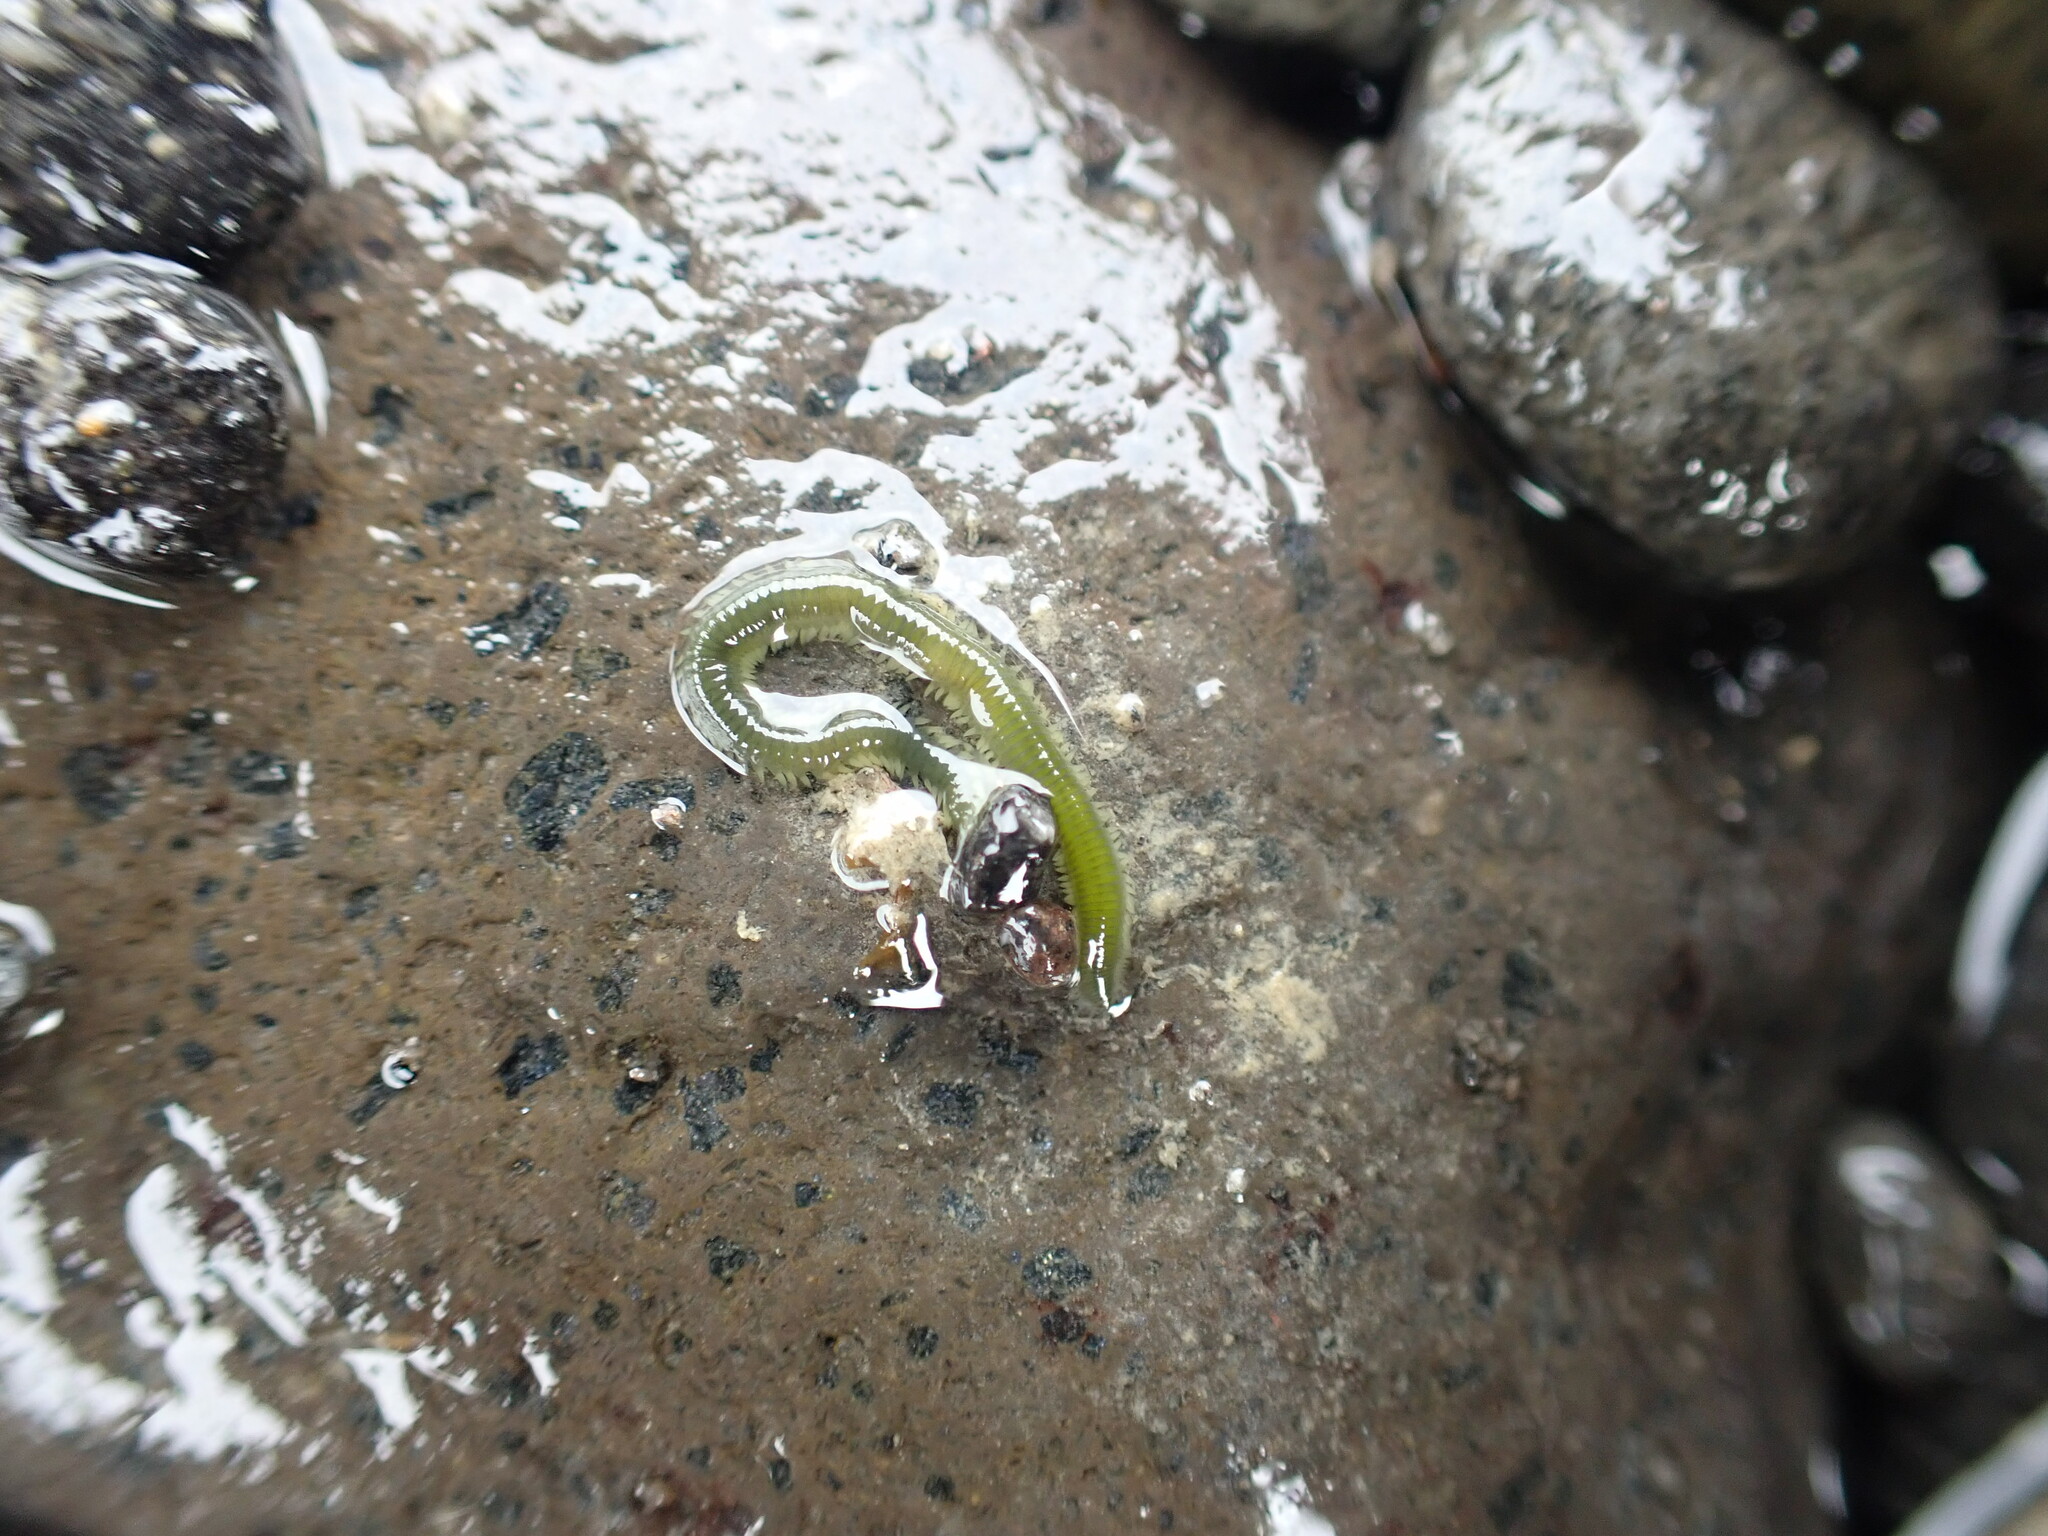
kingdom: Animalia
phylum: Annelida
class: Polychaeta
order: Phyllodocida
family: Phyllodocidae
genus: Eulalia
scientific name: Eulalia microphylla
